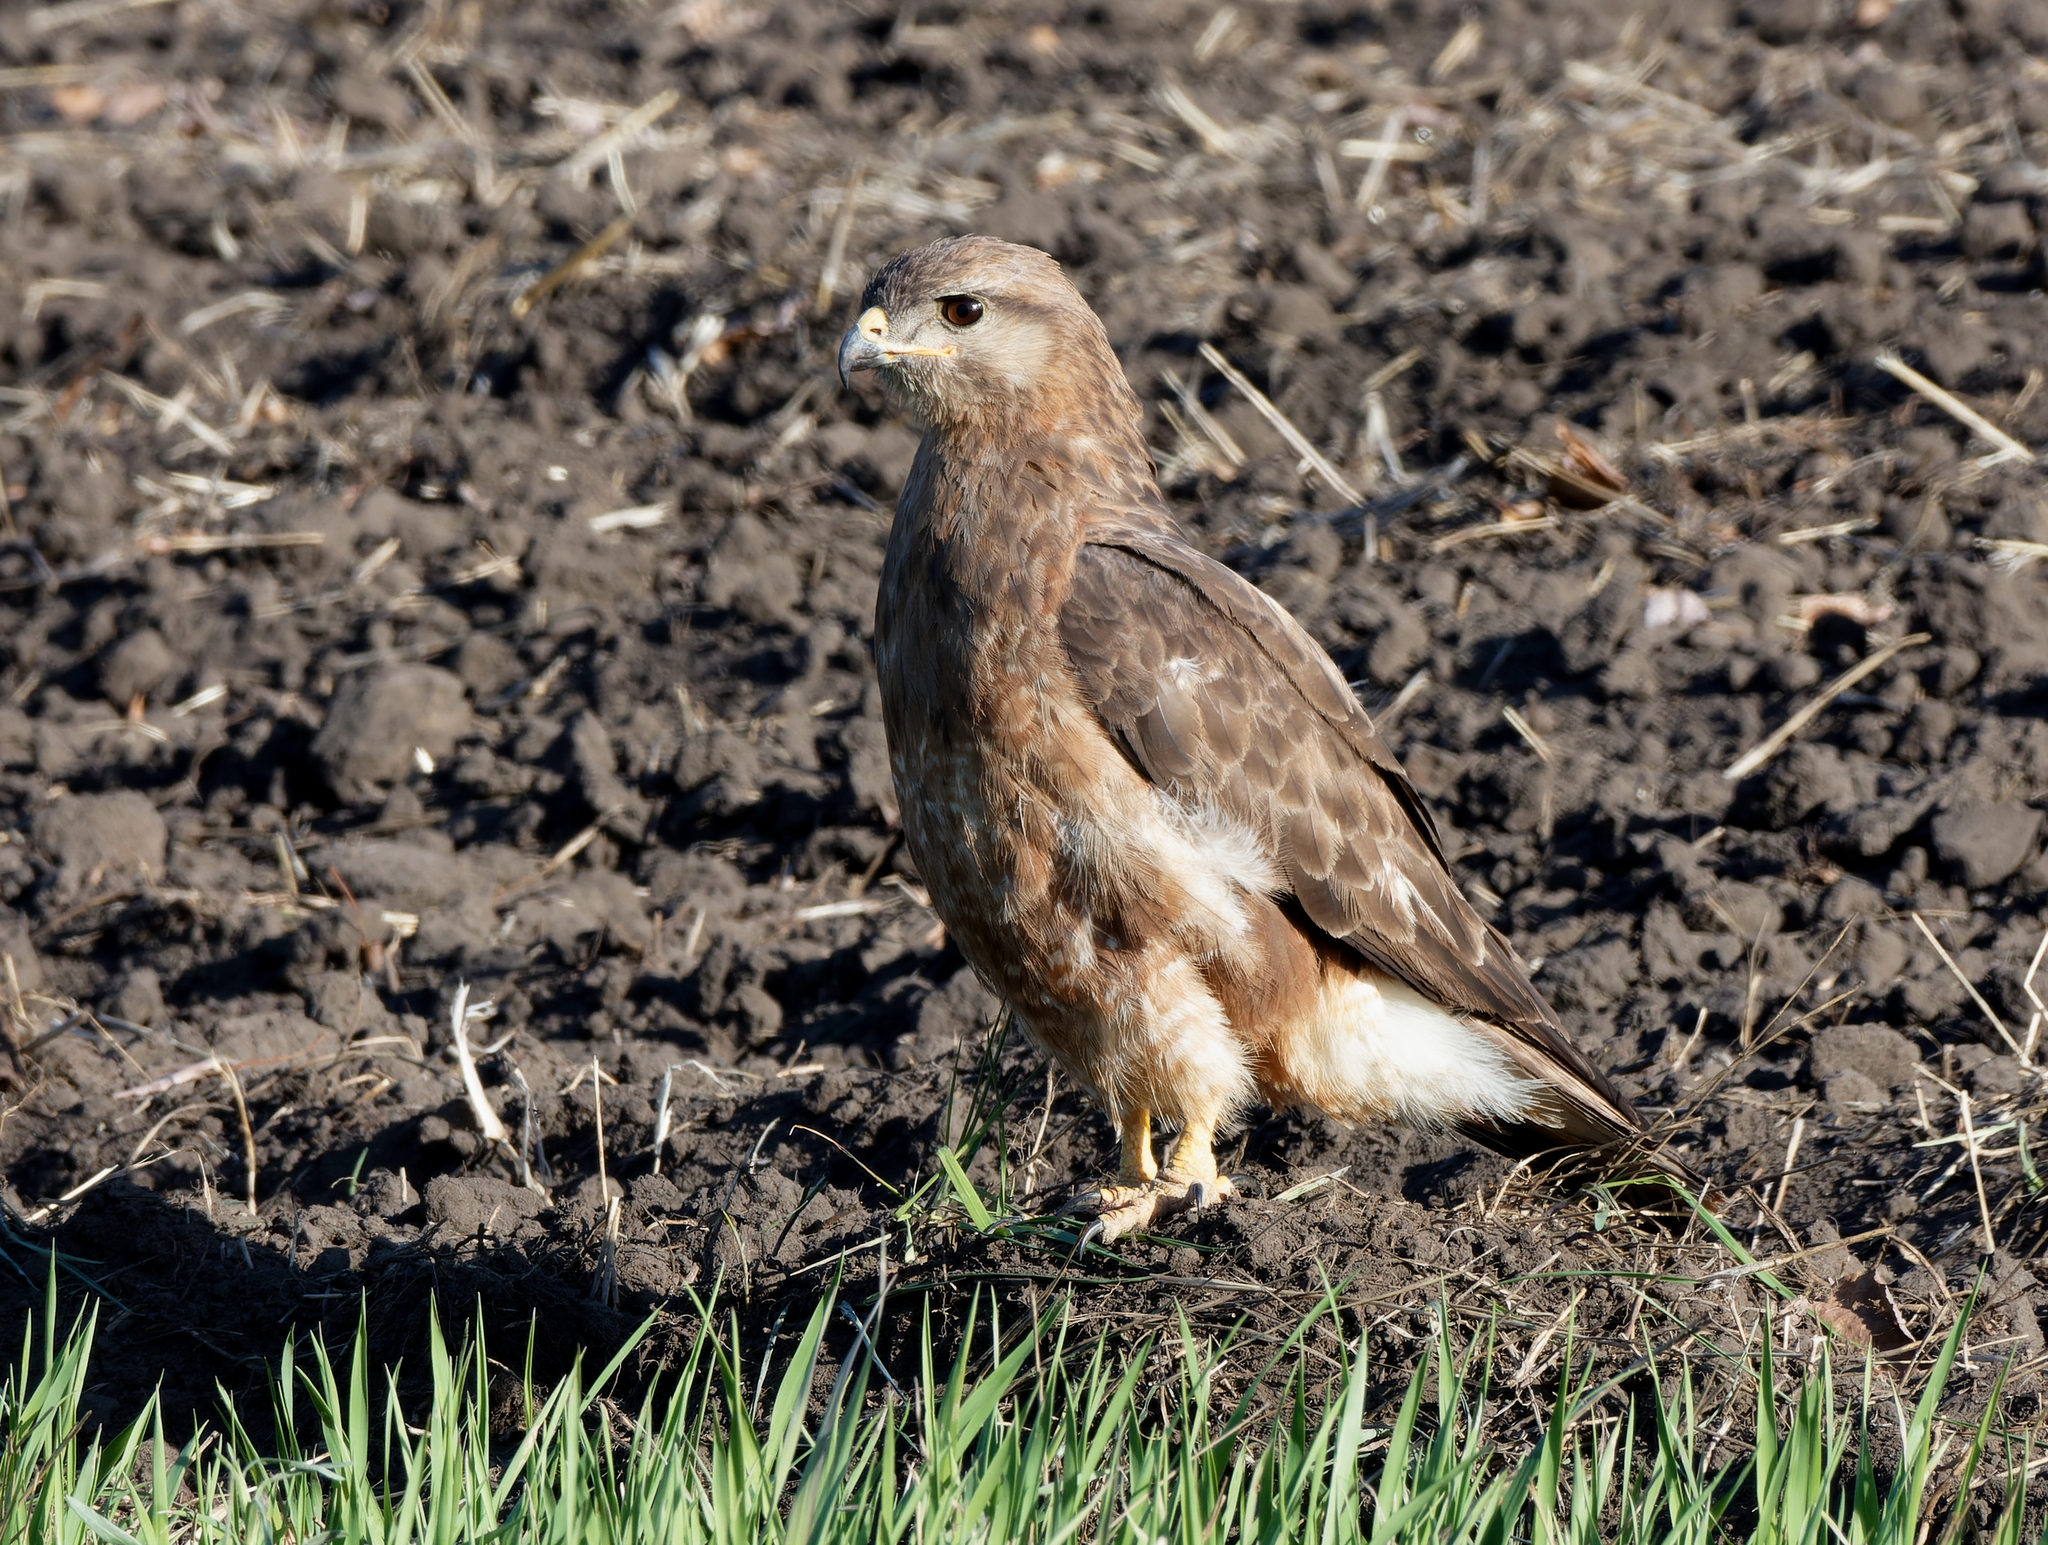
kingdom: Animalia
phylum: Chordata
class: Aves
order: Accipitriformes
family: Accipitridae
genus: Buteo
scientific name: Buteo buteo
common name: Common buzzard
